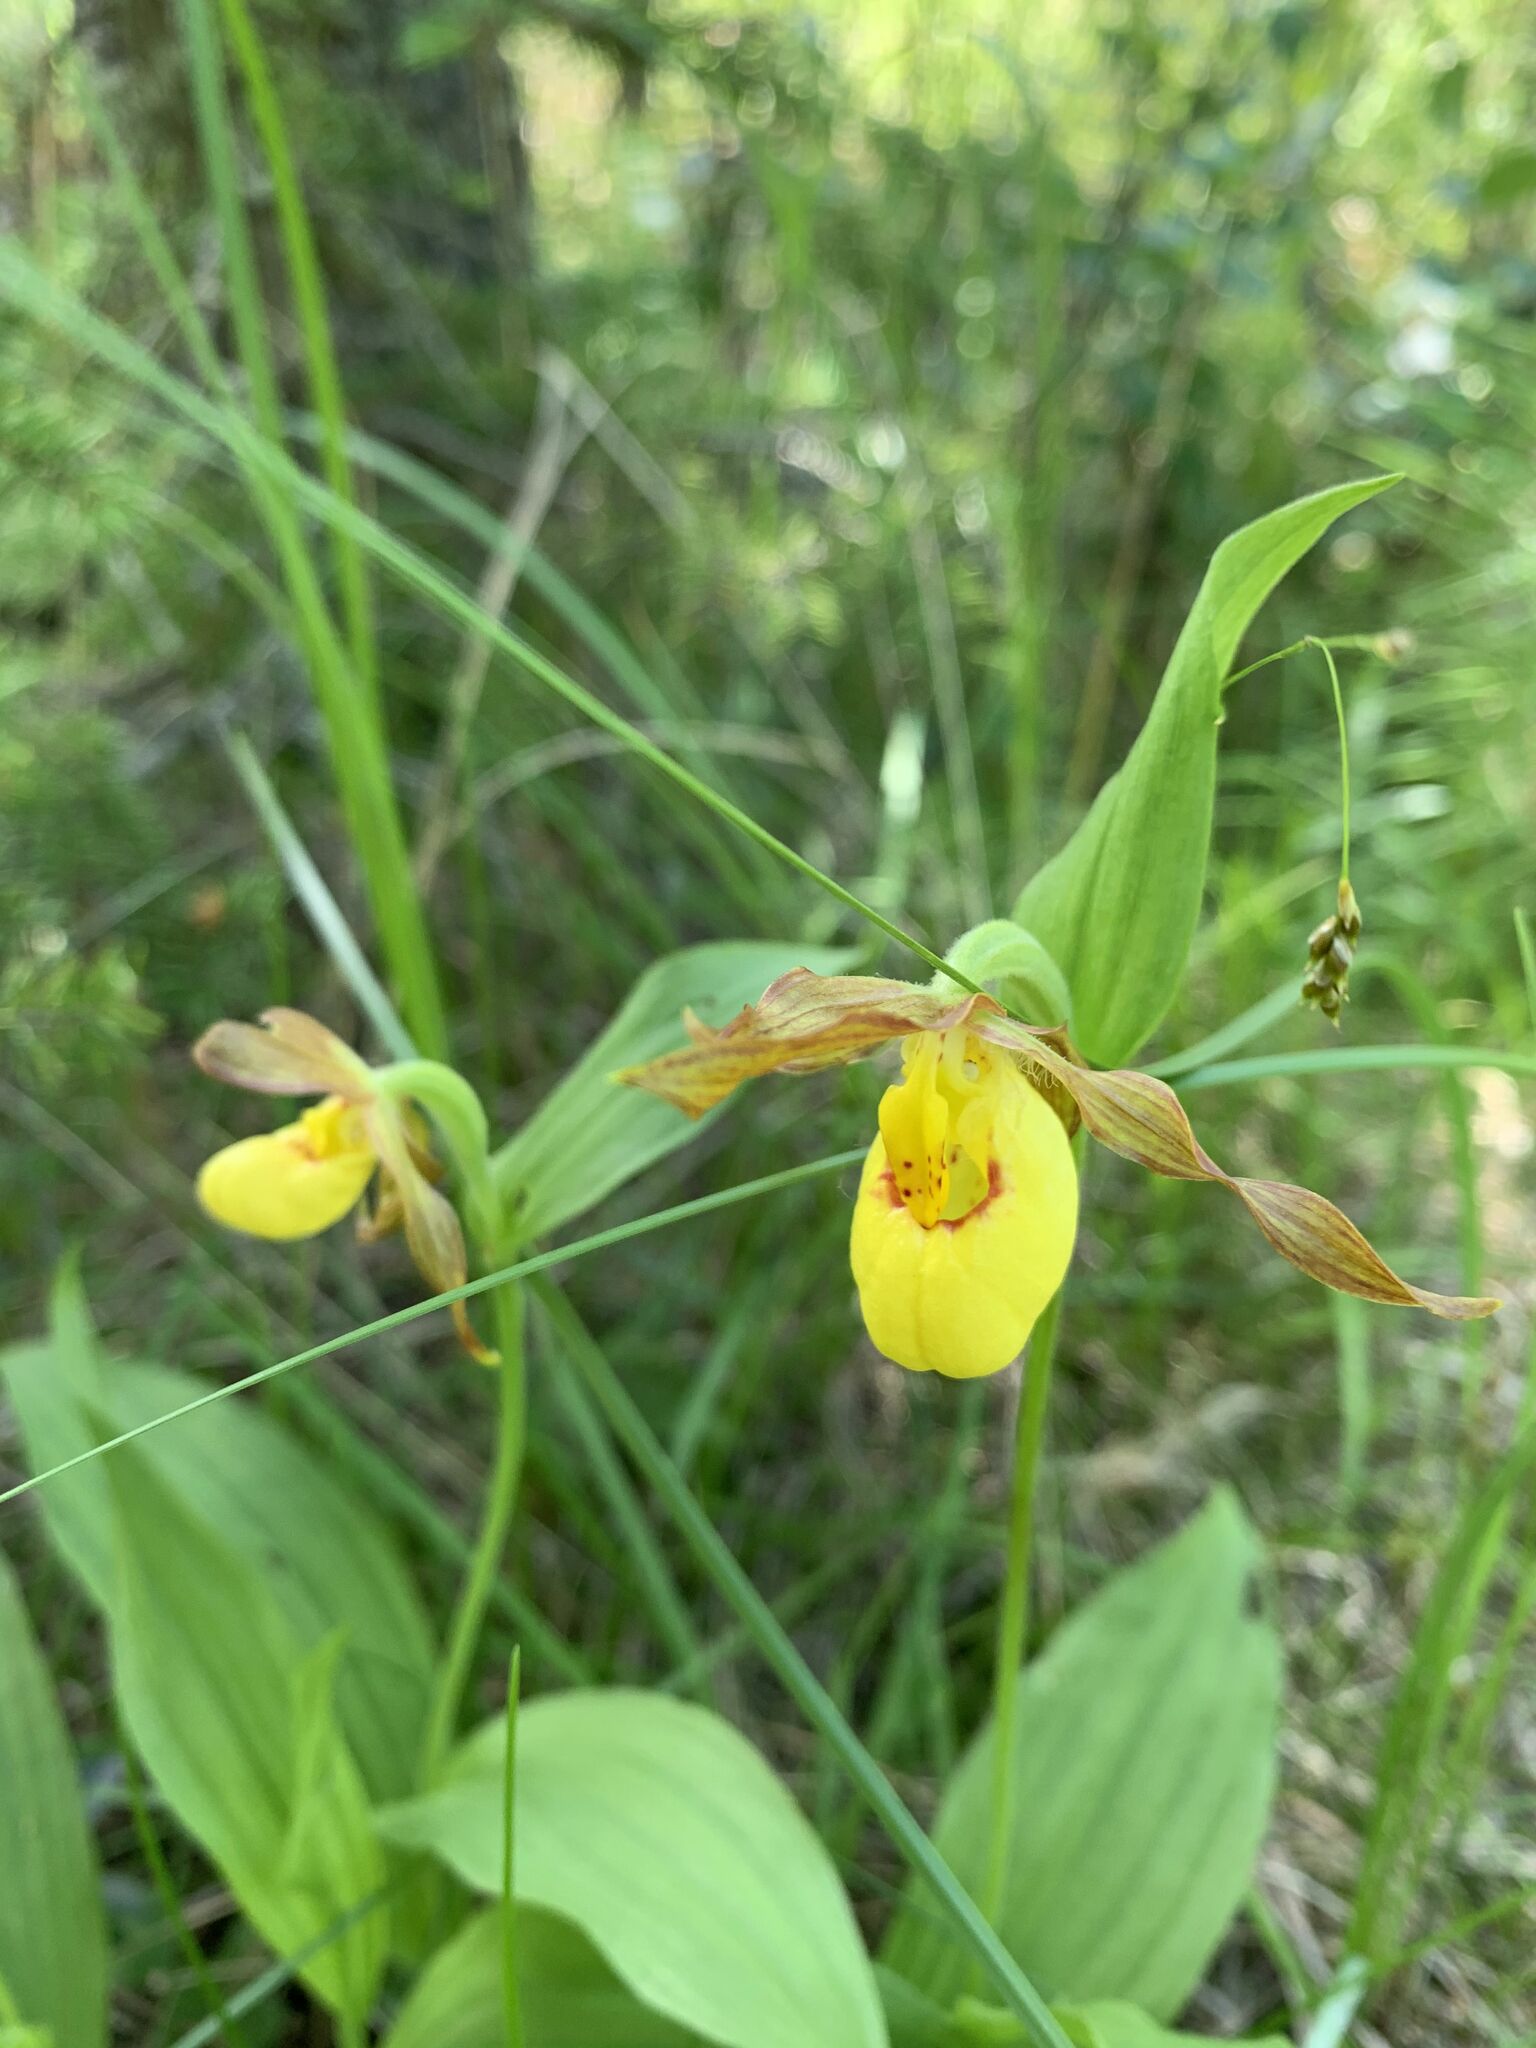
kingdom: Plantae
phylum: Tracheophyta
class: Liliopsida
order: Asparagales
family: Orchidaceae
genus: Cypripedium
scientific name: Cypripedium parviflorum
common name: American yellow lady's-slipper
